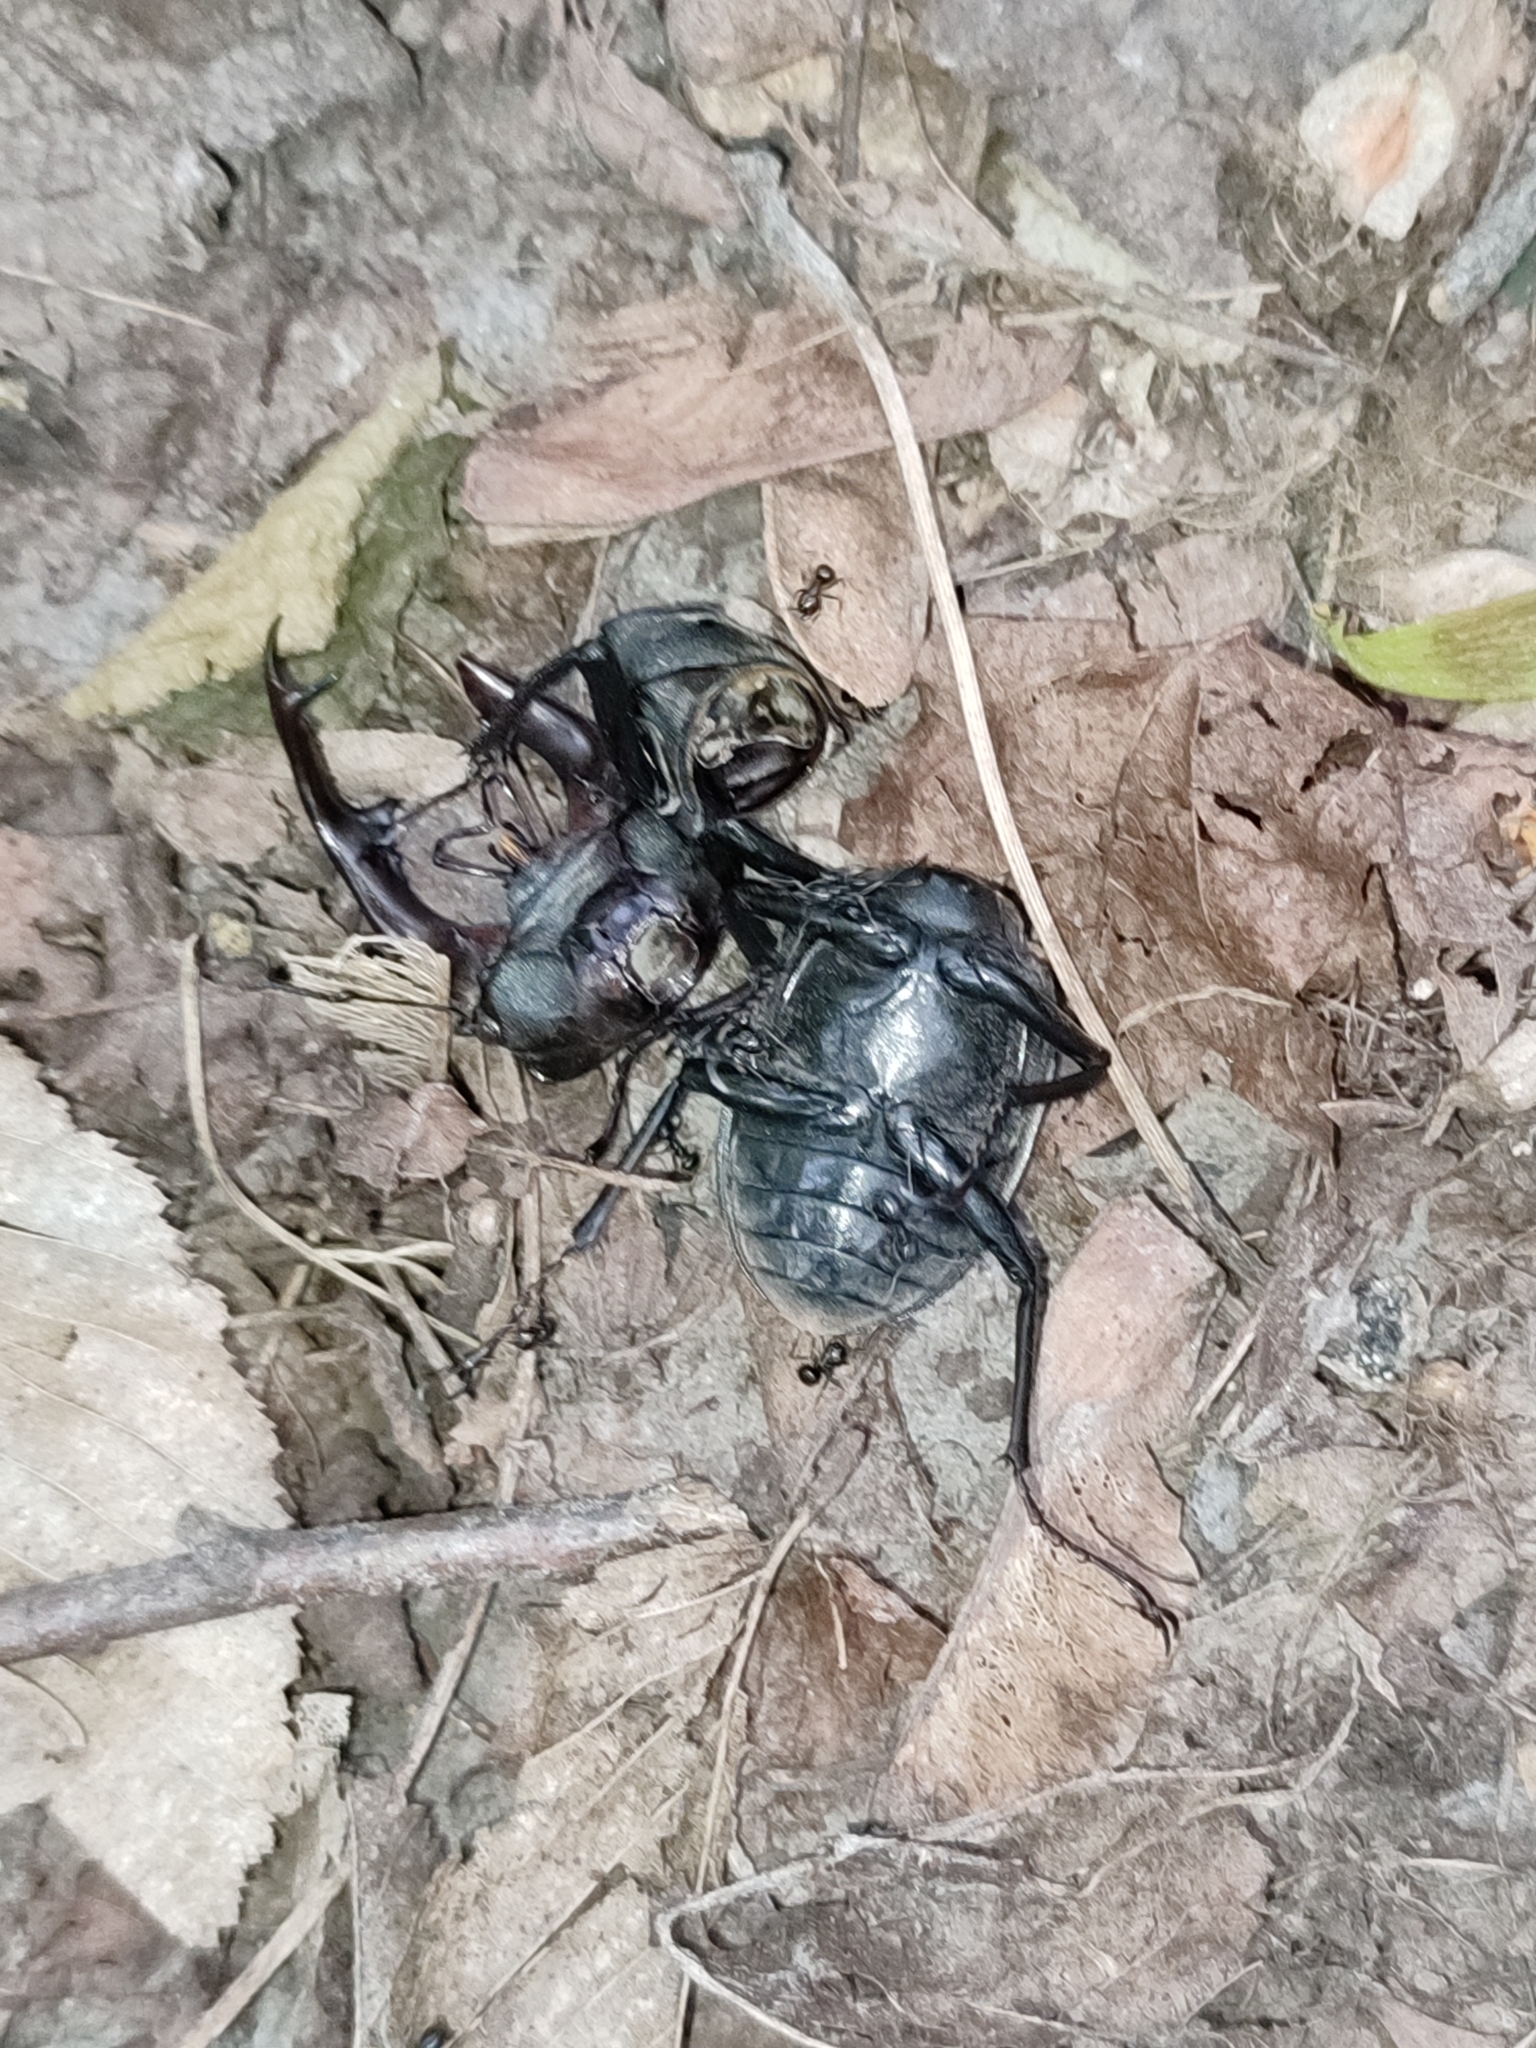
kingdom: Animalia
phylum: Arthropoda
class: Insecta
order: Coleoptera
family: Lucanidae
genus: Lucanus
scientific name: Lucanus cervus
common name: Stag beetle
